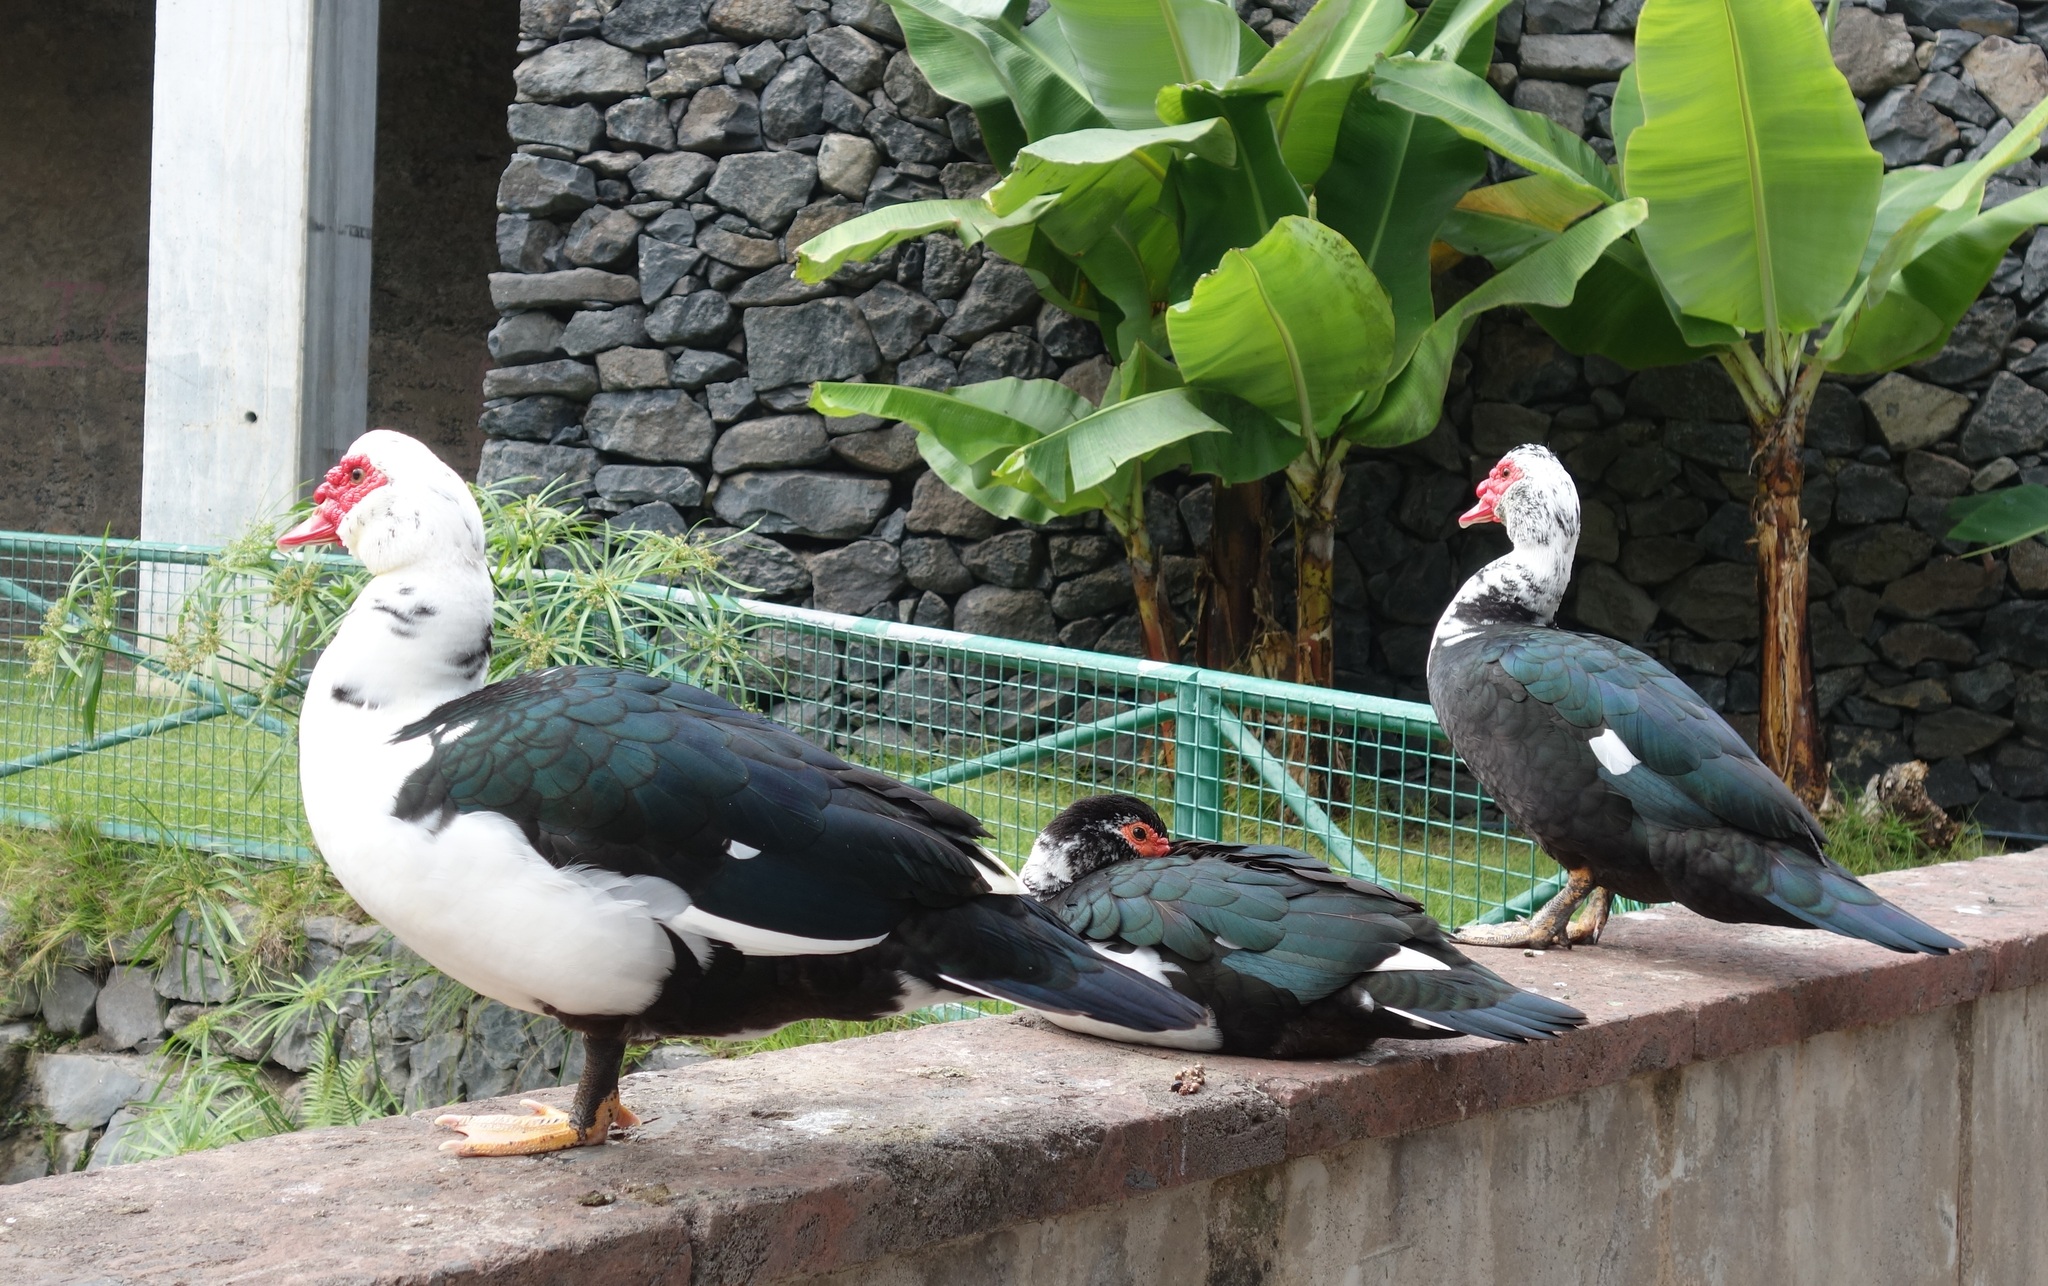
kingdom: Animalia
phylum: Chordata
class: Aves
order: Anseriformes
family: Anatidae
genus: Cairina
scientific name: Cairina moschata
